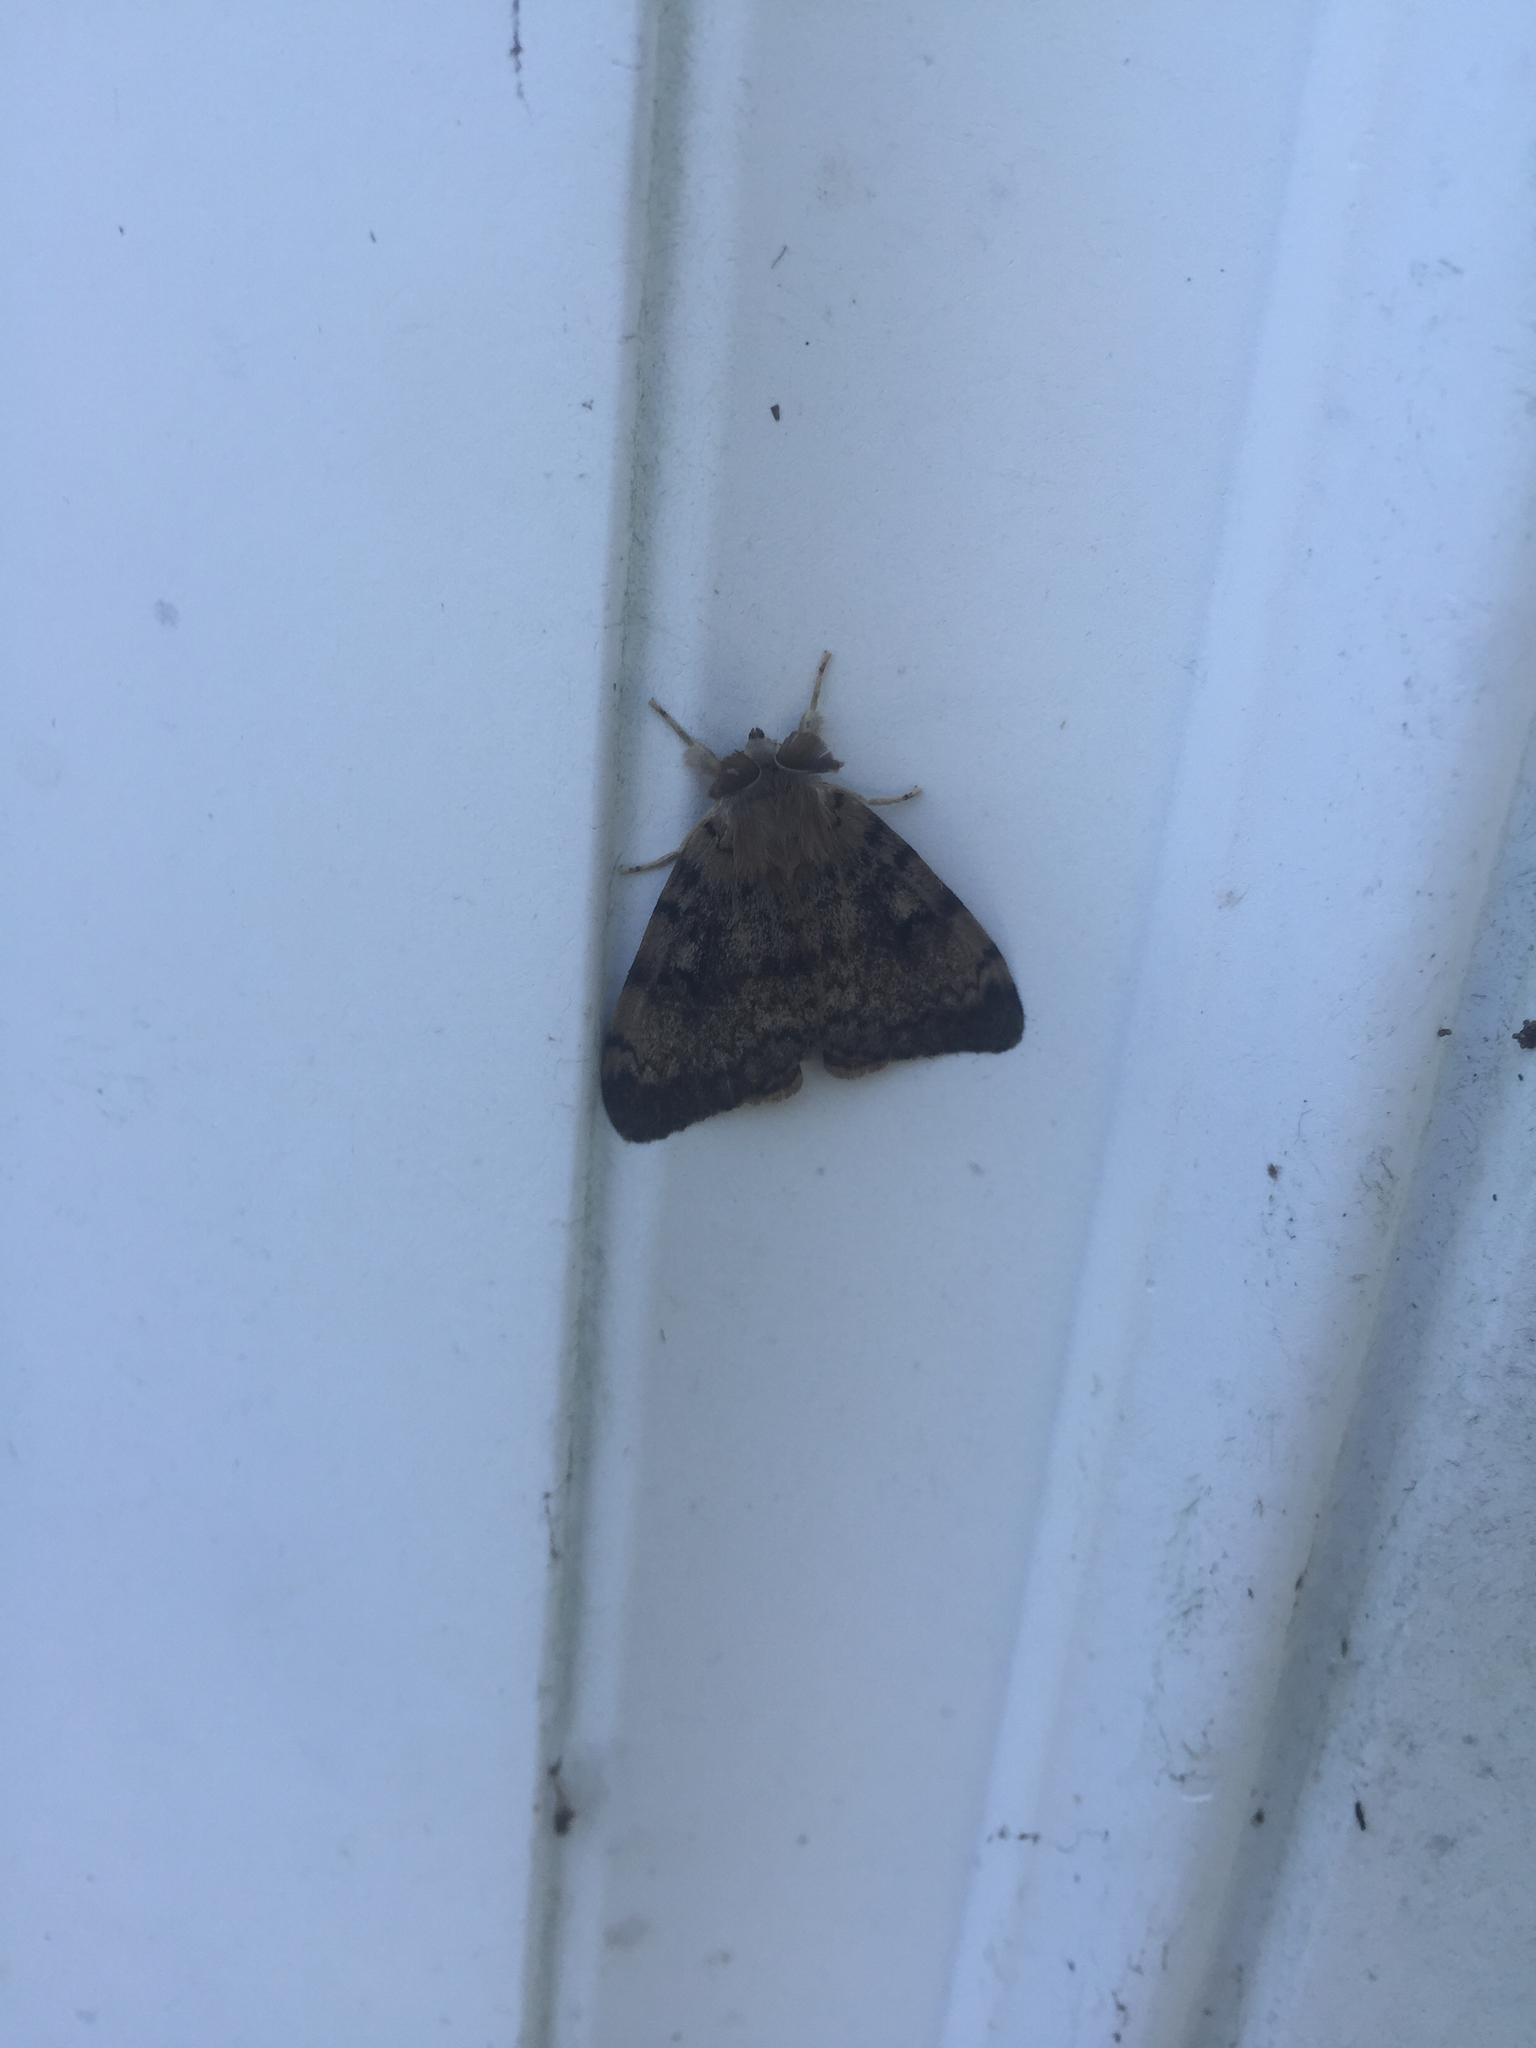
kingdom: Animalia
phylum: Arthropoda
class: Insecta
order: Lepidoptera
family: Erebidae
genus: Lymantria
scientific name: Lymantria dispar
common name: Gypsy moth
